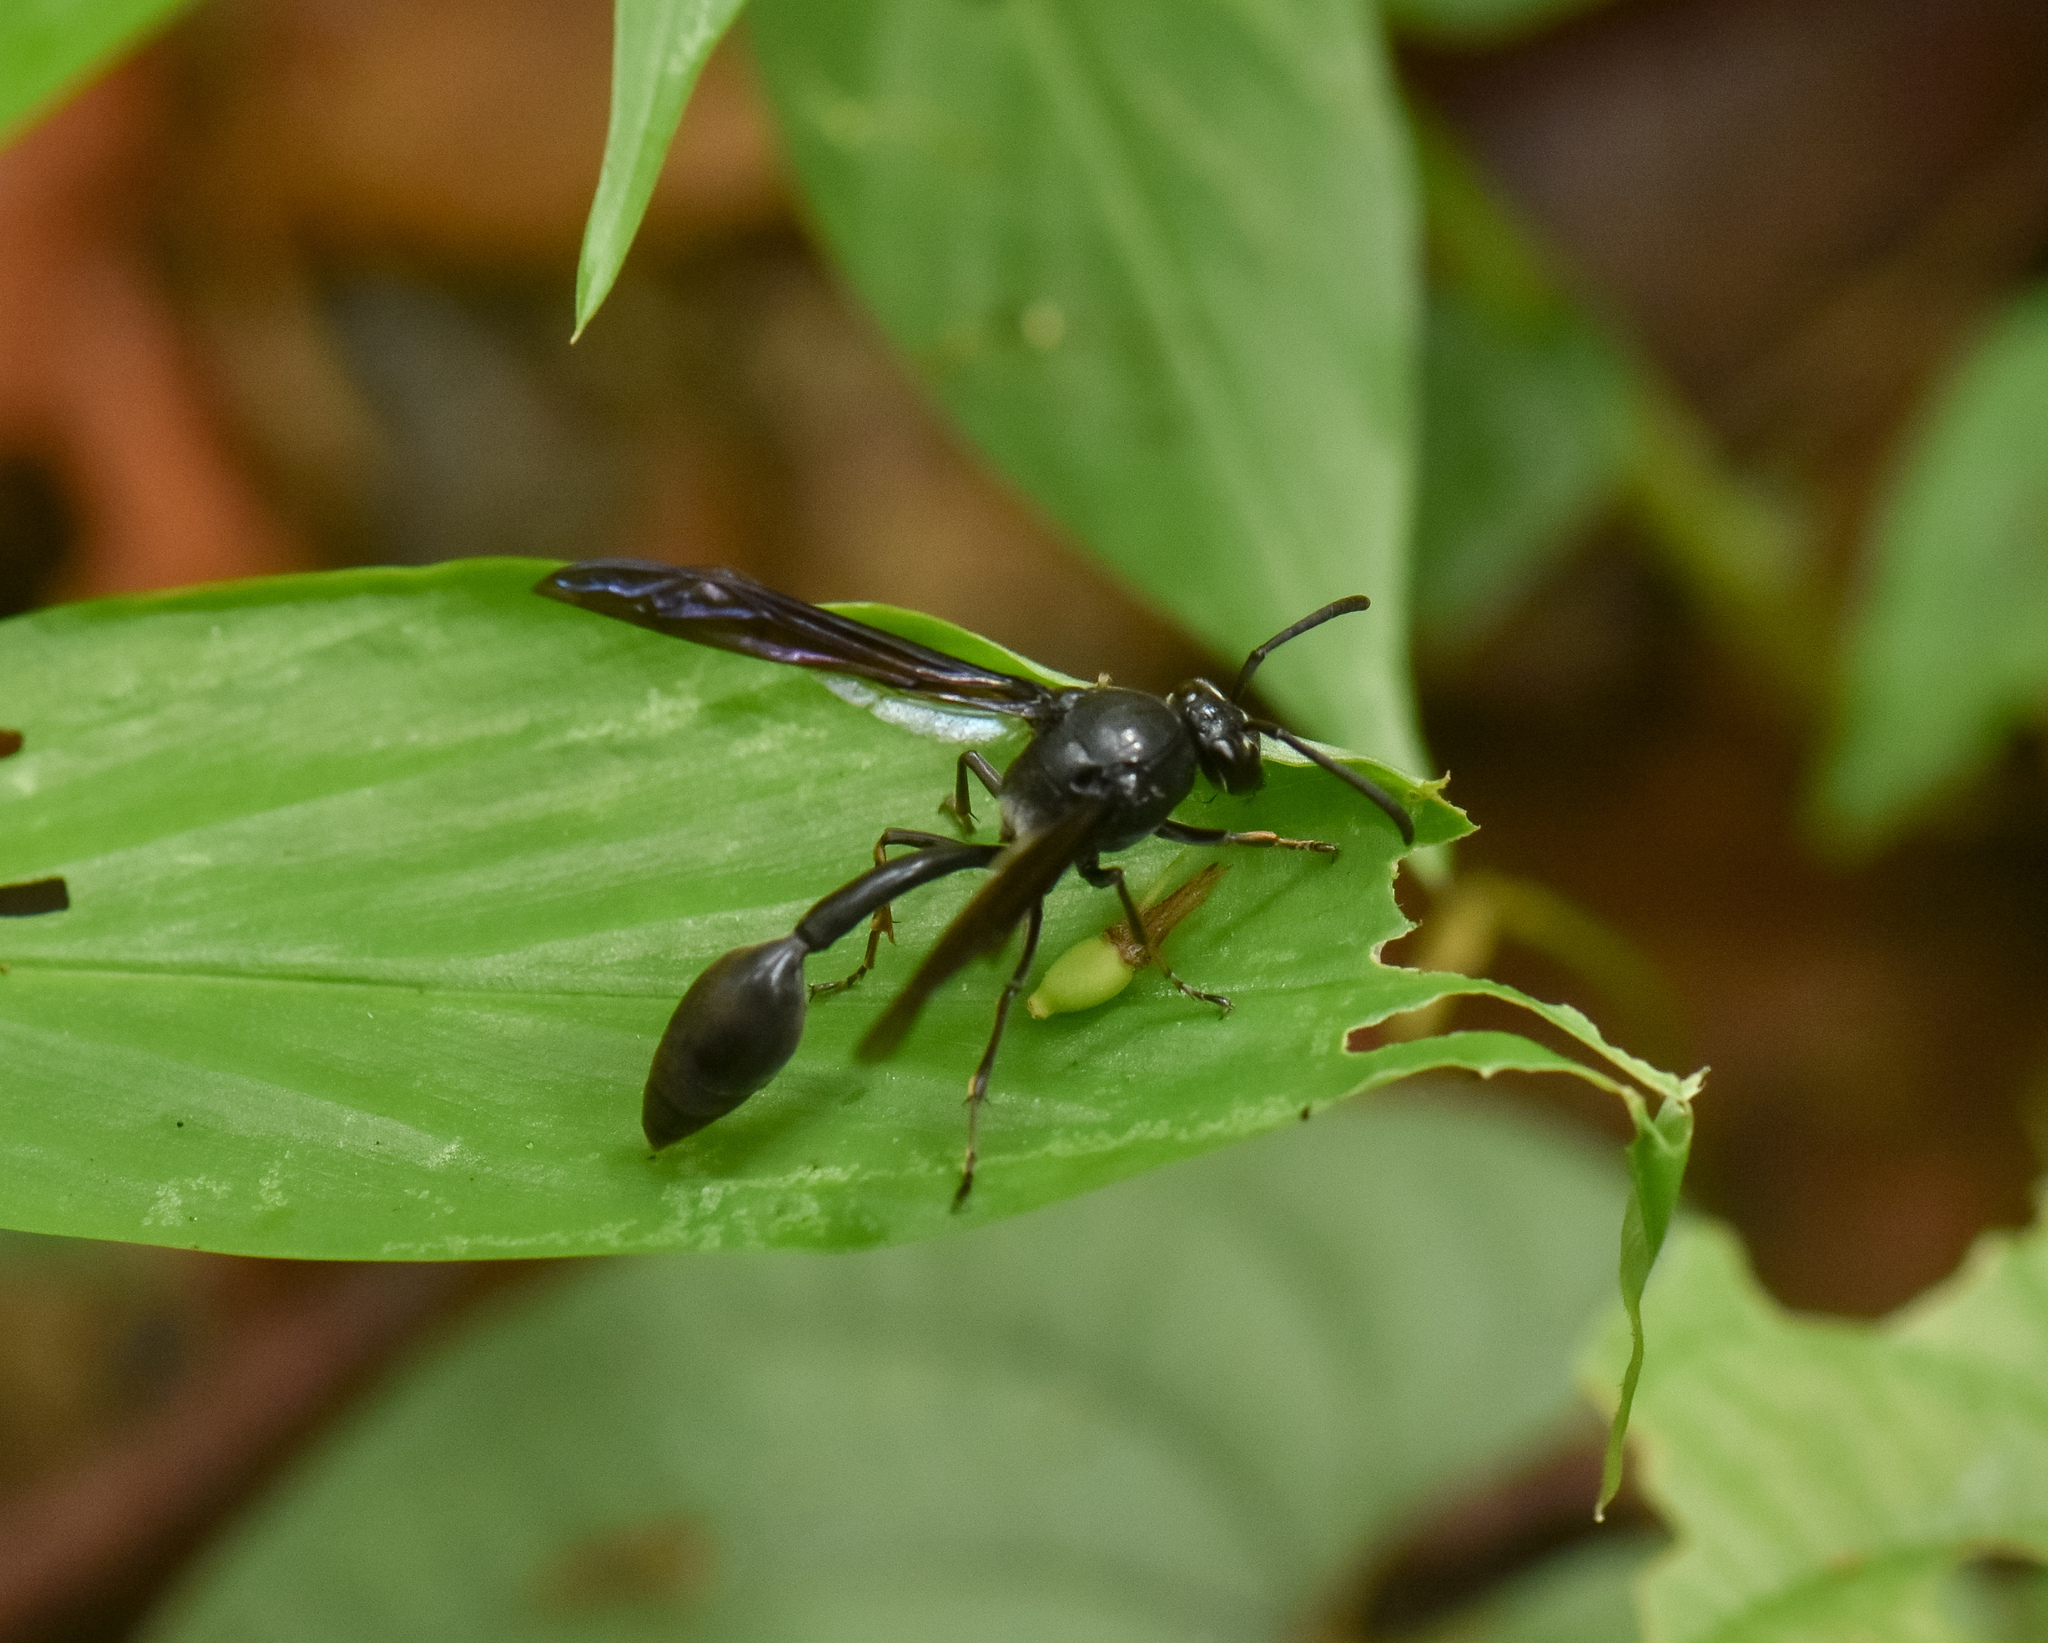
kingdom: Animalia
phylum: Arthropoda
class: Insecta
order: Hymenoptera
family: Eumenidae
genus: Phimenes
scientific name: Phimenes indosinensis
